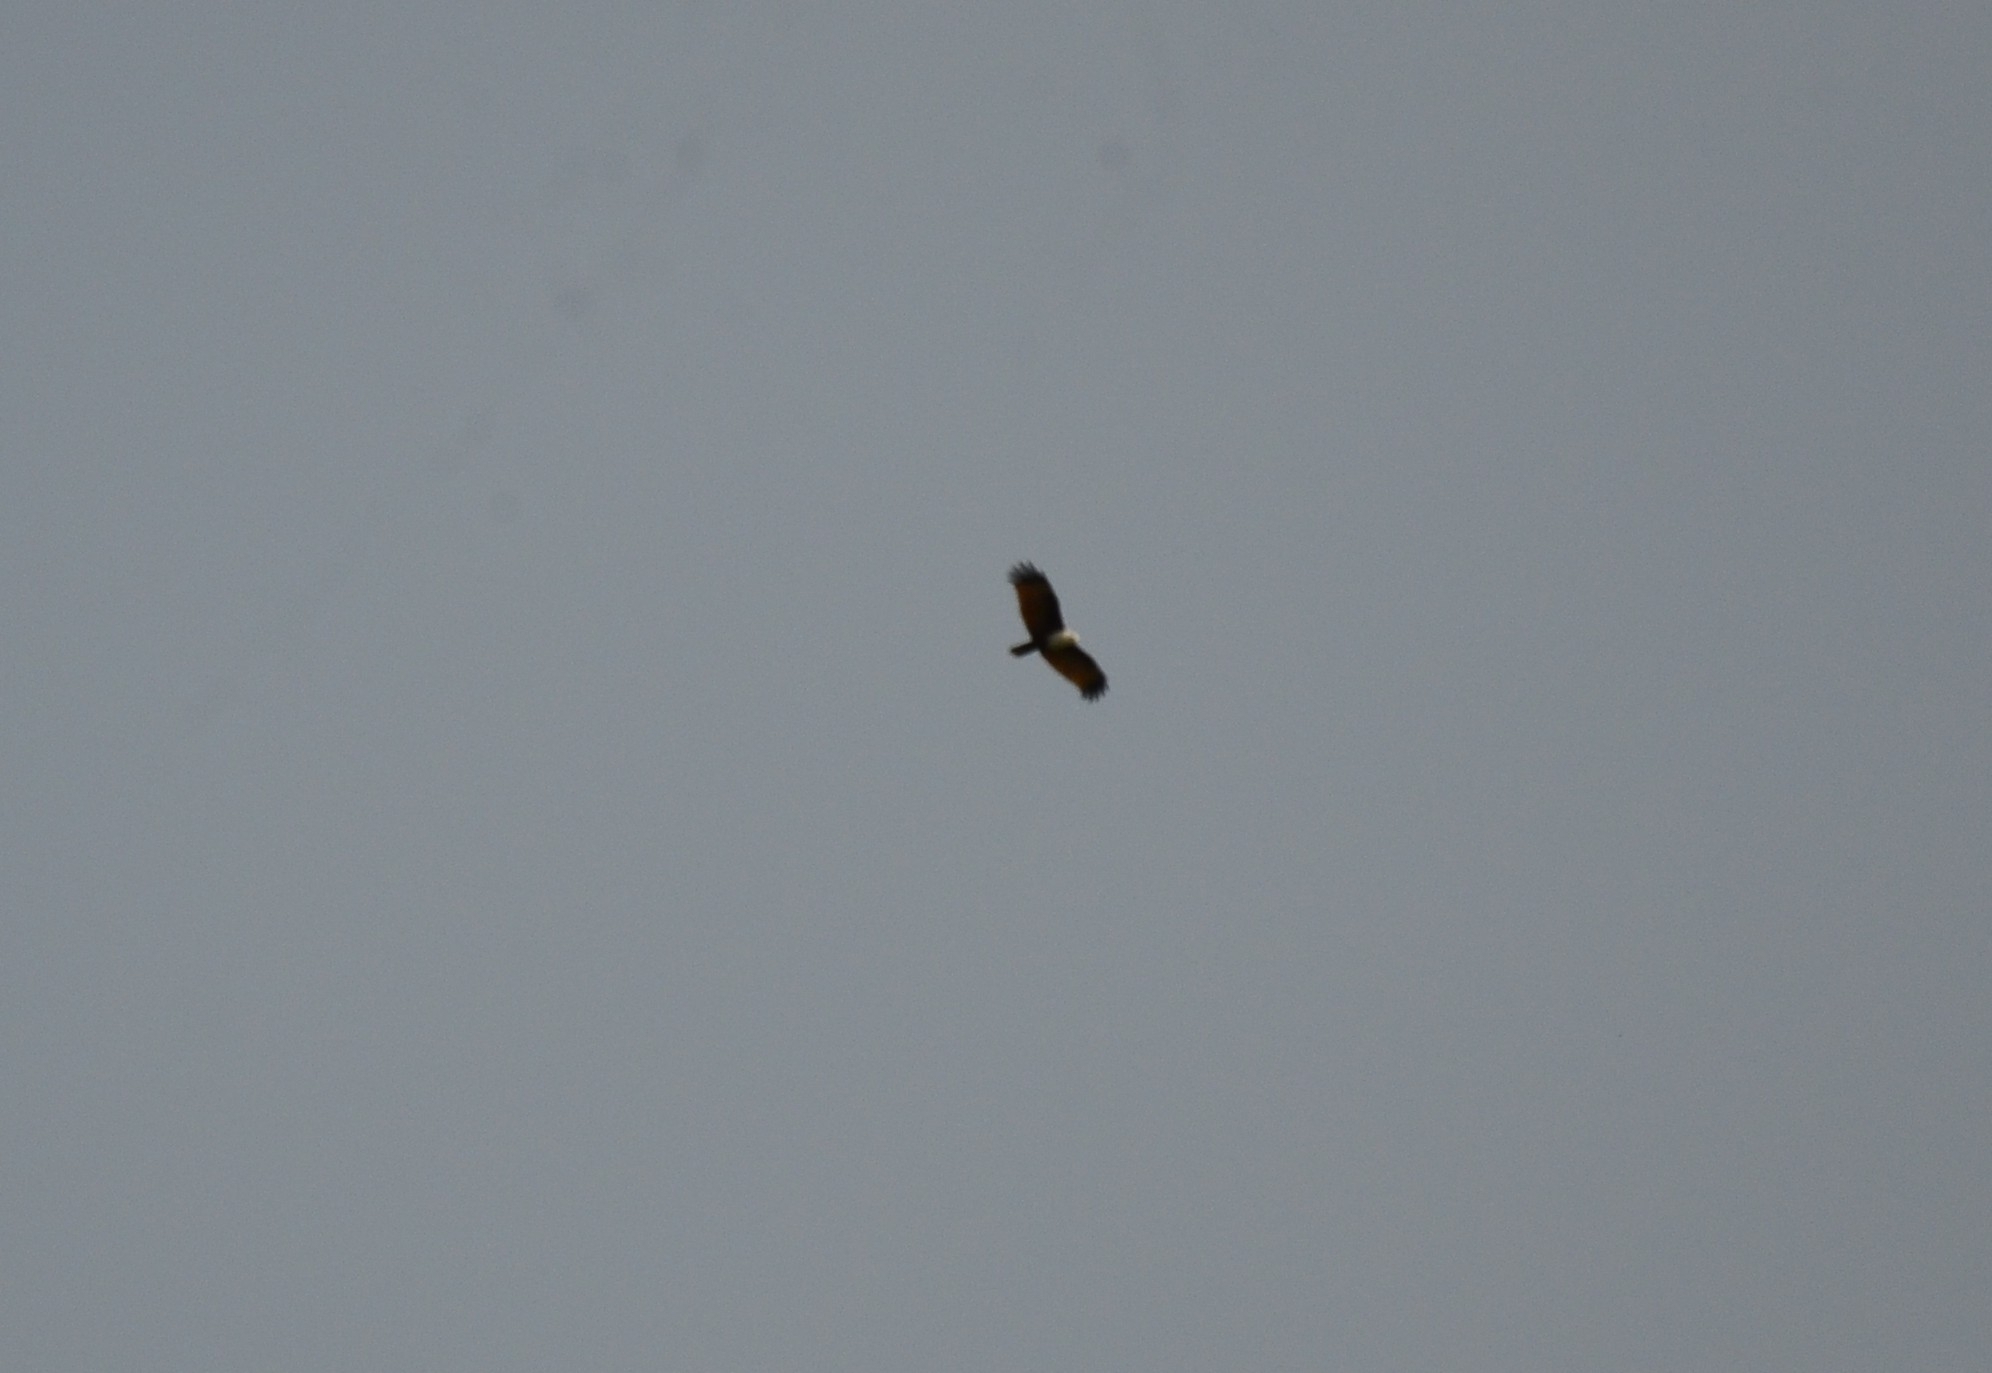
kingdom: Animalia
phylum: Chordata
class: Aves
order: Accipitriformes
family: Accipitridae
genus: Haliastur
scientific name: Haliastur indus
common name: Brahminy kite
